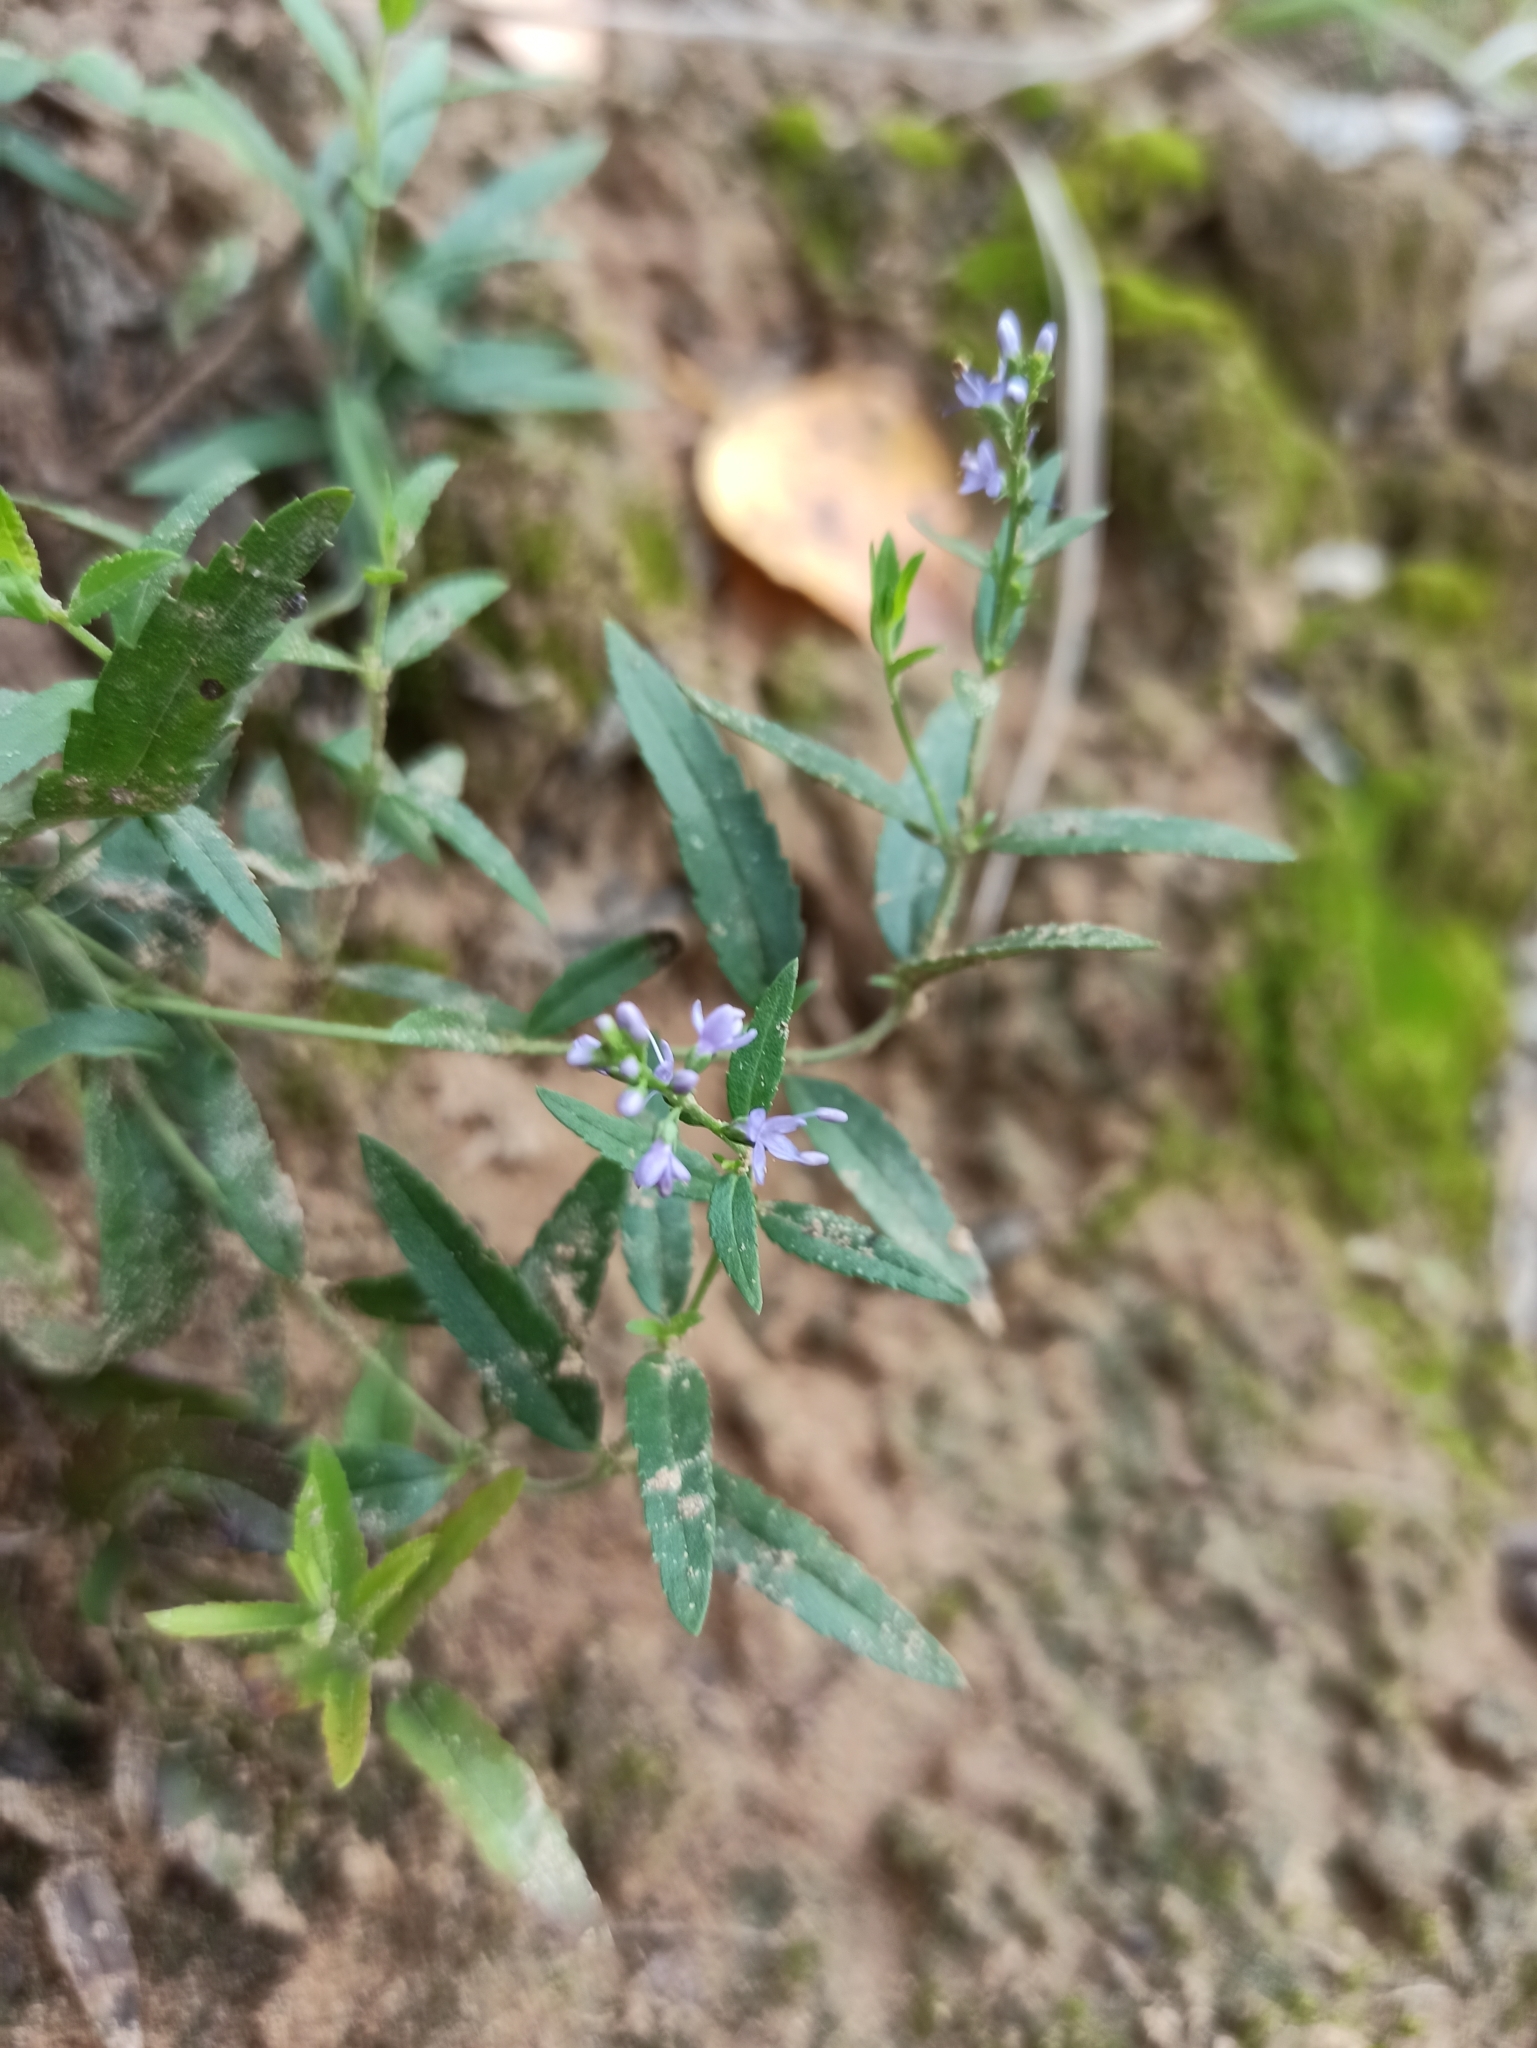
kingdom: Plantae
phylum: Tracheophyta
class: Magnoliopsida
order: Lamiales
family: Plantaginaceae
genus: Veronica
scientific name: Veronica longifolia
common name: Garden speedwell
